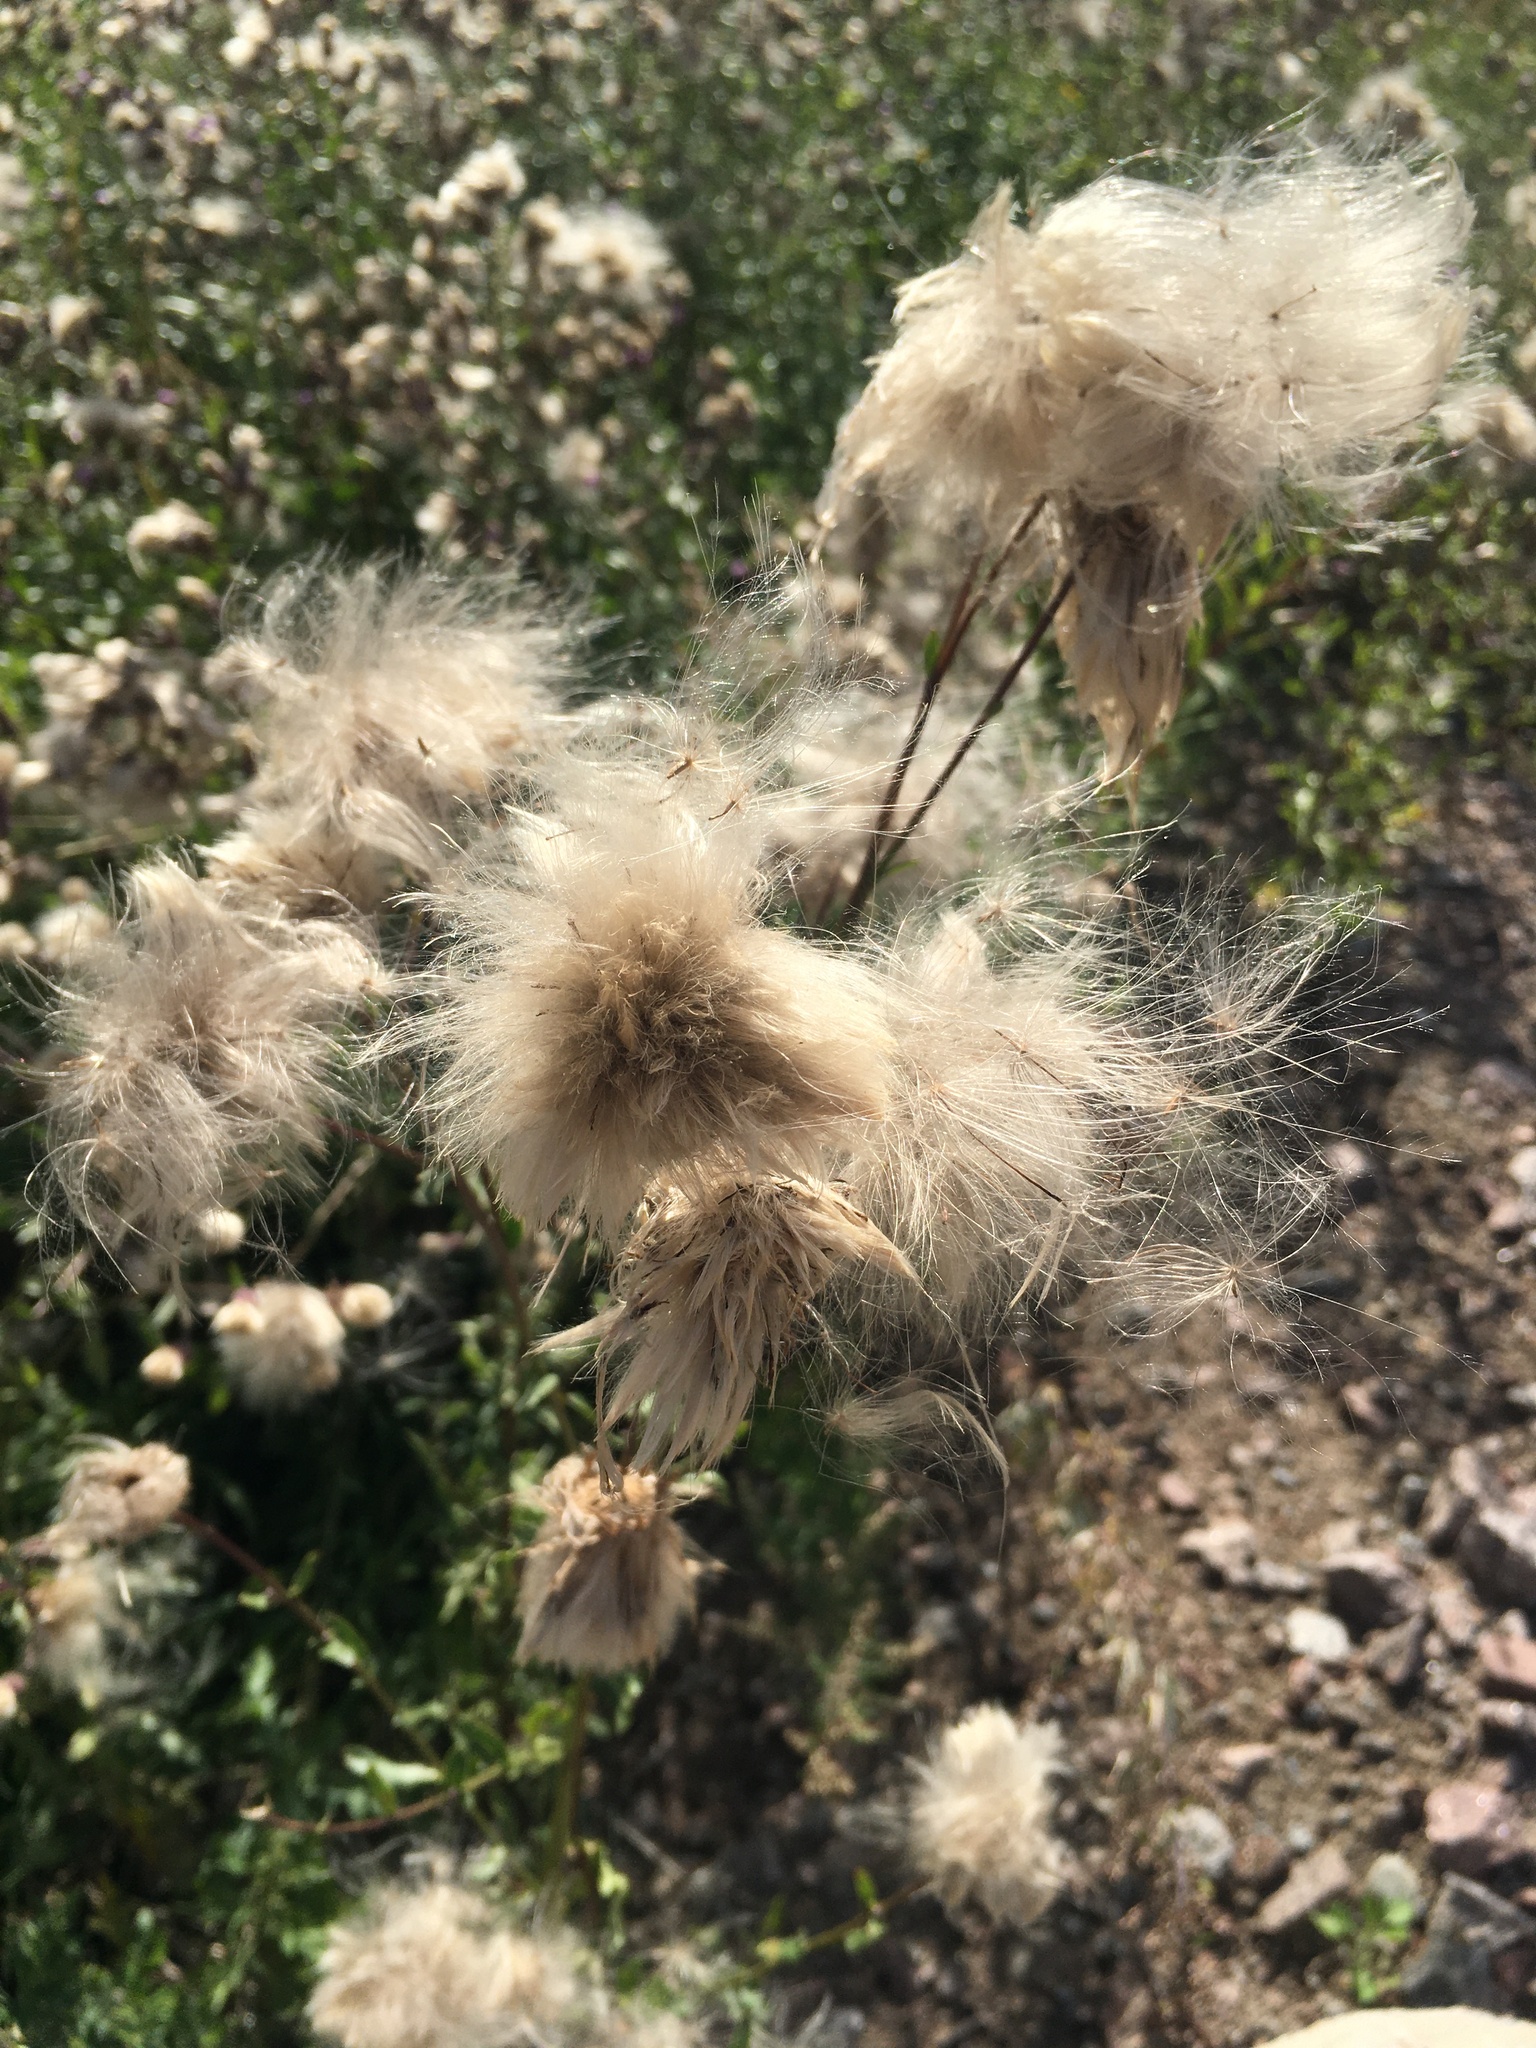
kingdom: Plantae
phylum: Tracheophyta
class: Magnoliopsida
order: Asterales
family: Asteraceae
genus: Cirsium
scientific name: Cirsium arvense
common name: Creeping thistle
